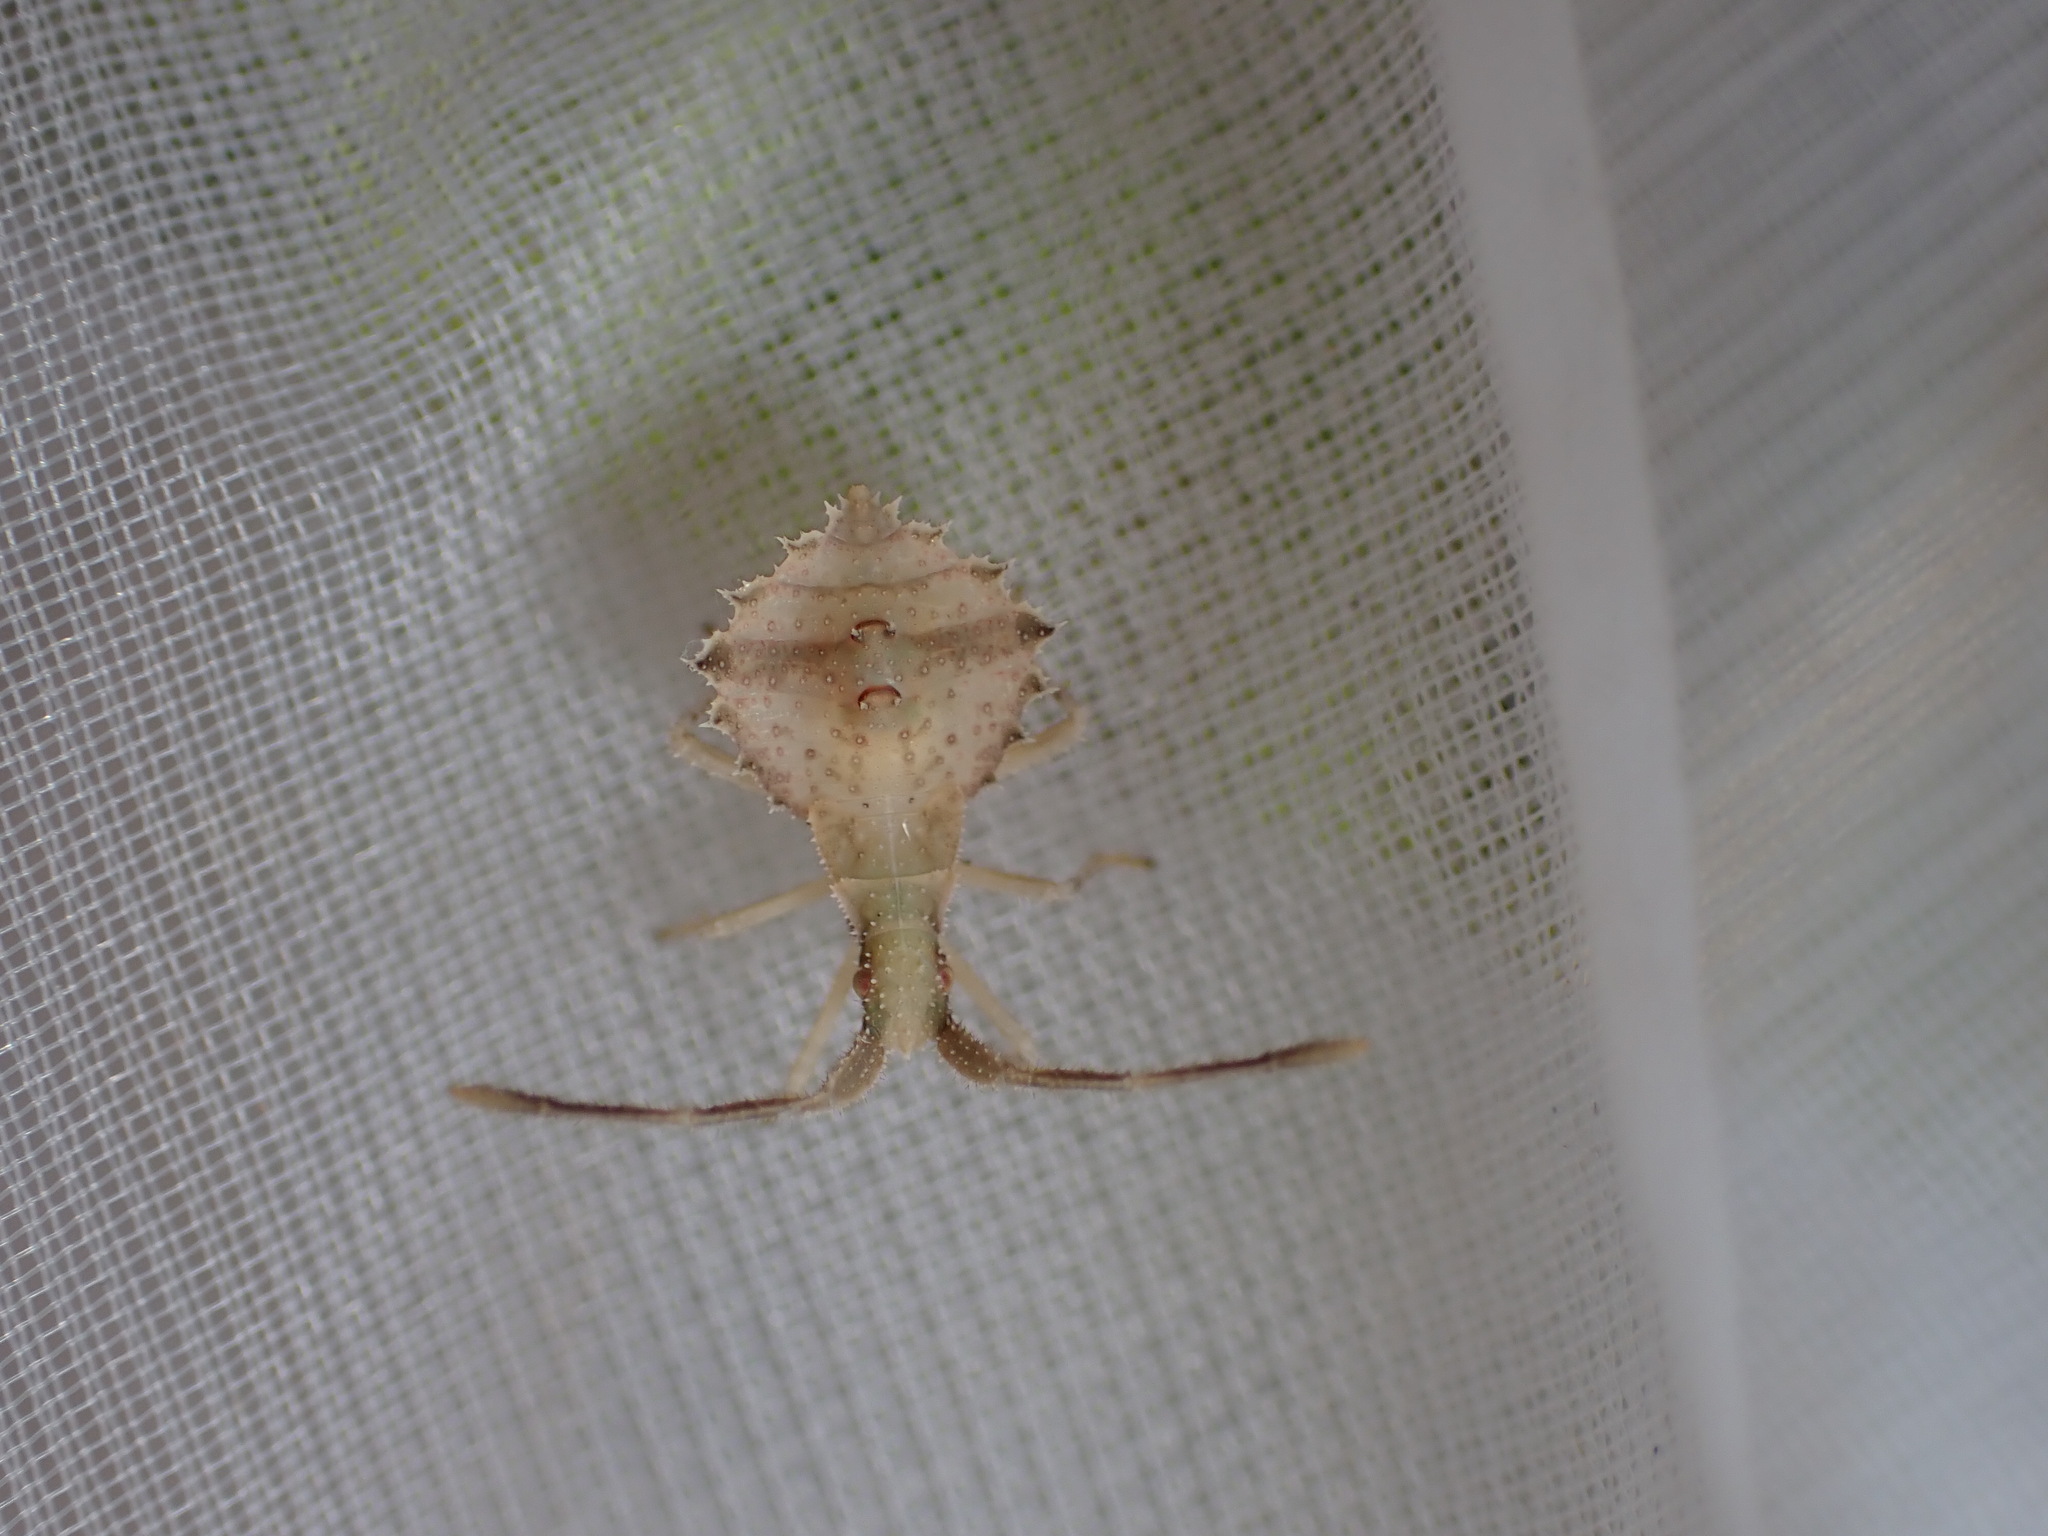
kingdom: Animalia
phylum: Arthropoda
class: Insecta
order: Hemiptera
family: Coreidae
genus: Syromastus
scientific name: Syromastus rhombeus
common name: Rhombic leatherbug
